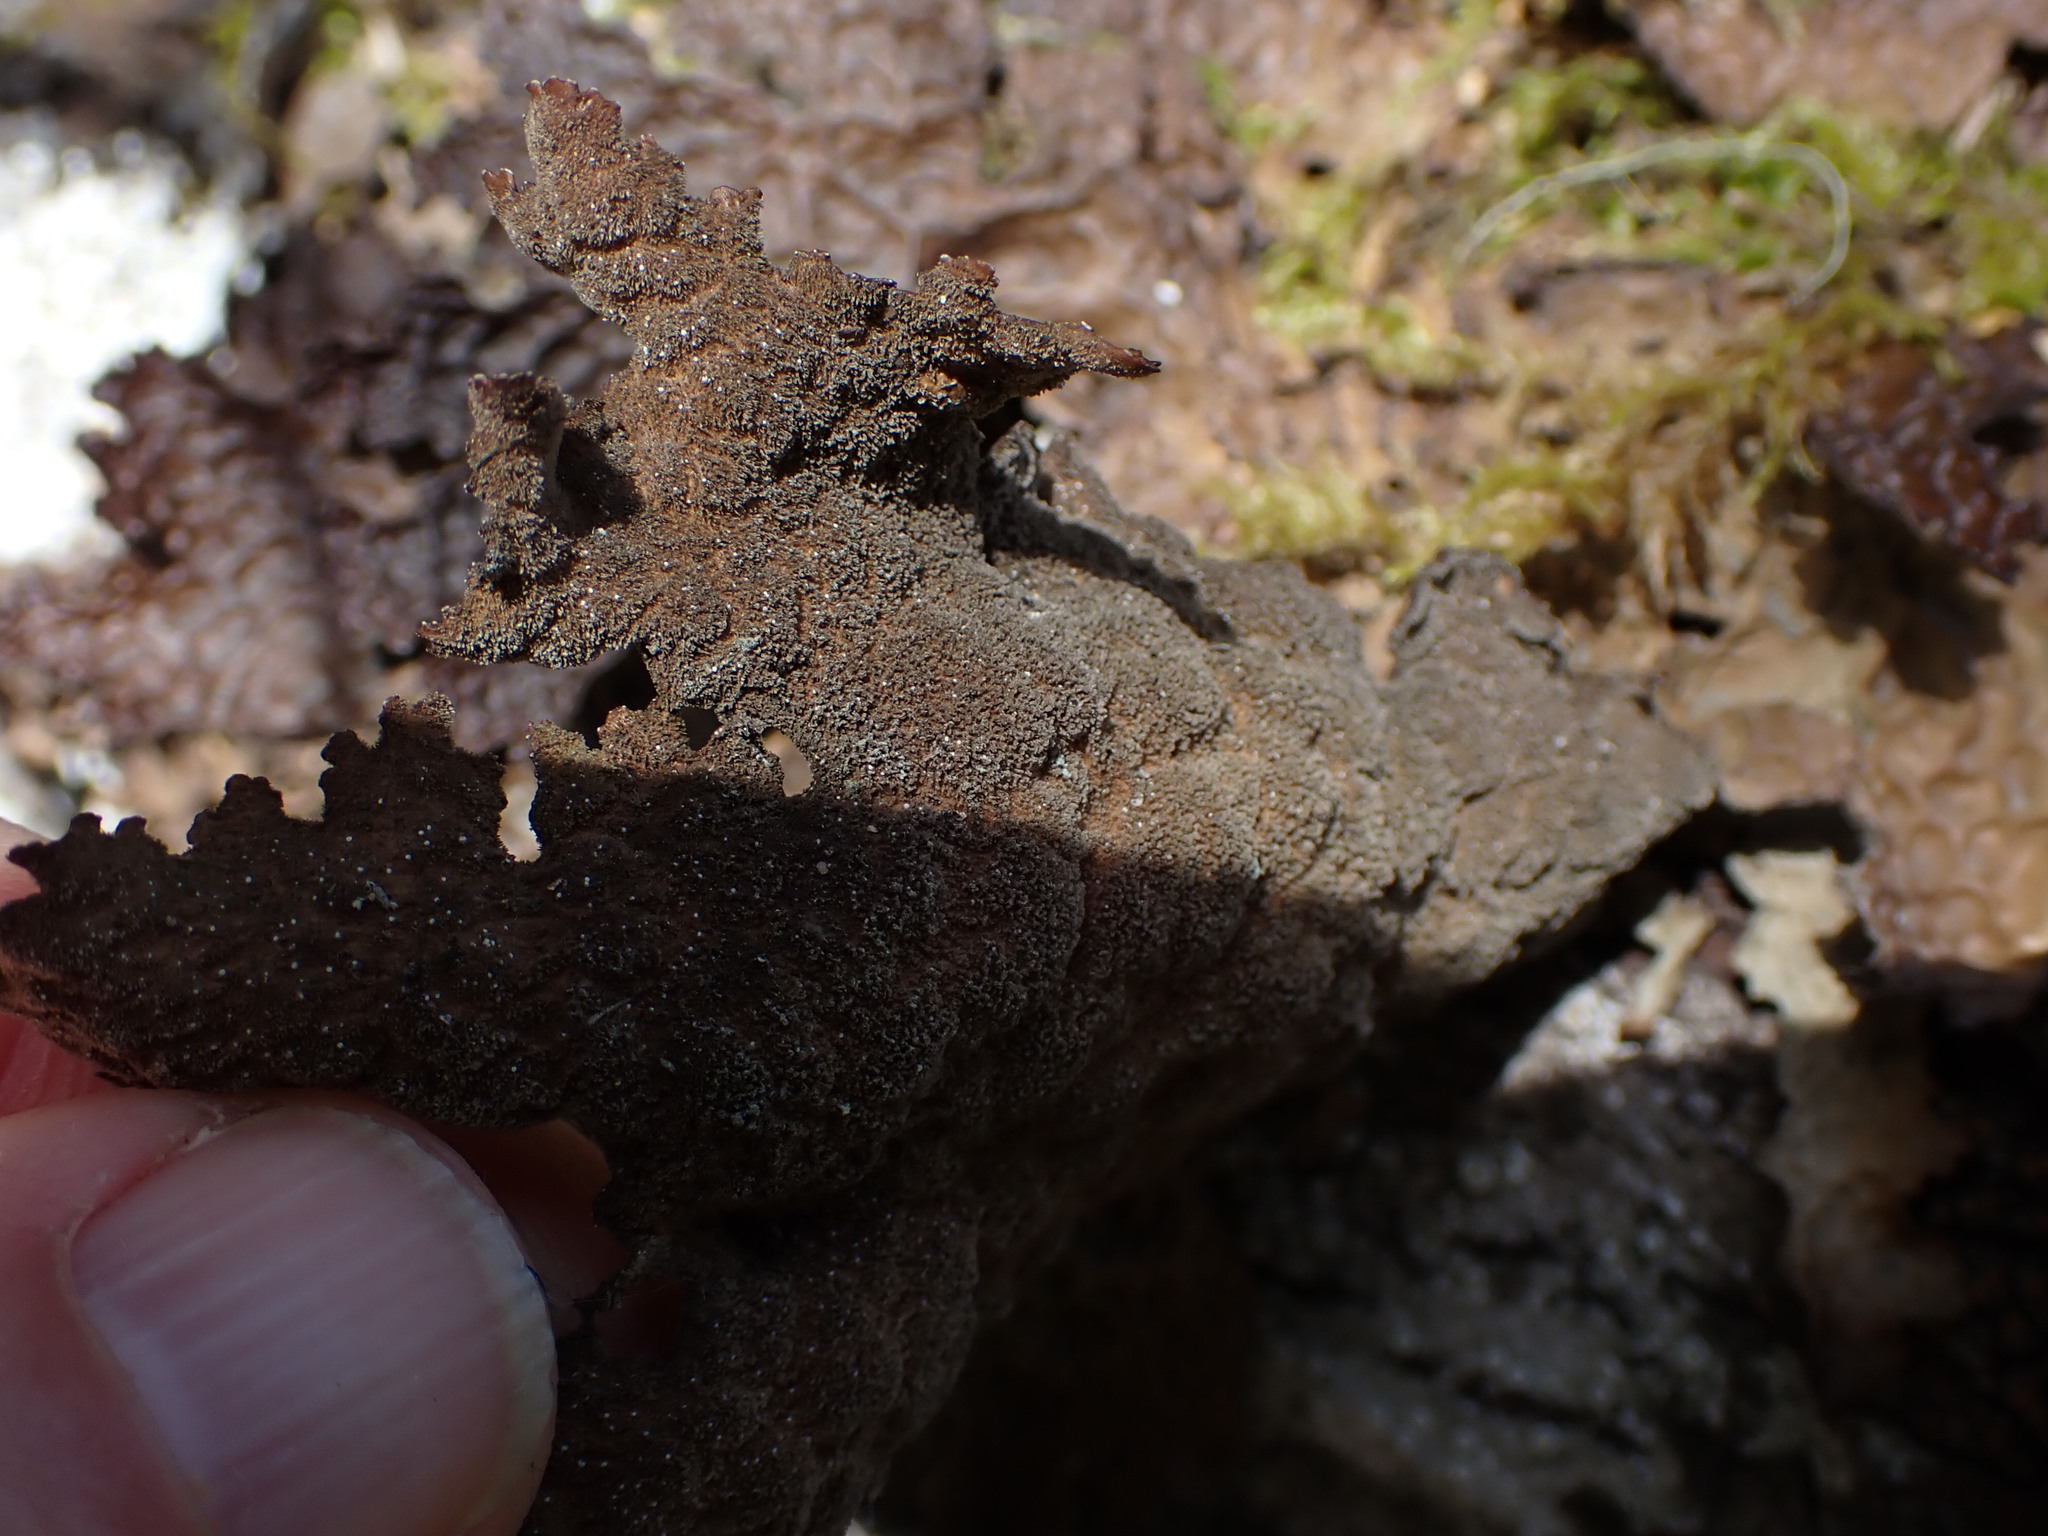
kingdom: Fungi
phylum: Ascomycota
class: Lecanoromycetes
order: Peltigerales
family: Lobariaceae
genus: Lobaria
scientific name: Lobaria anthraspis
